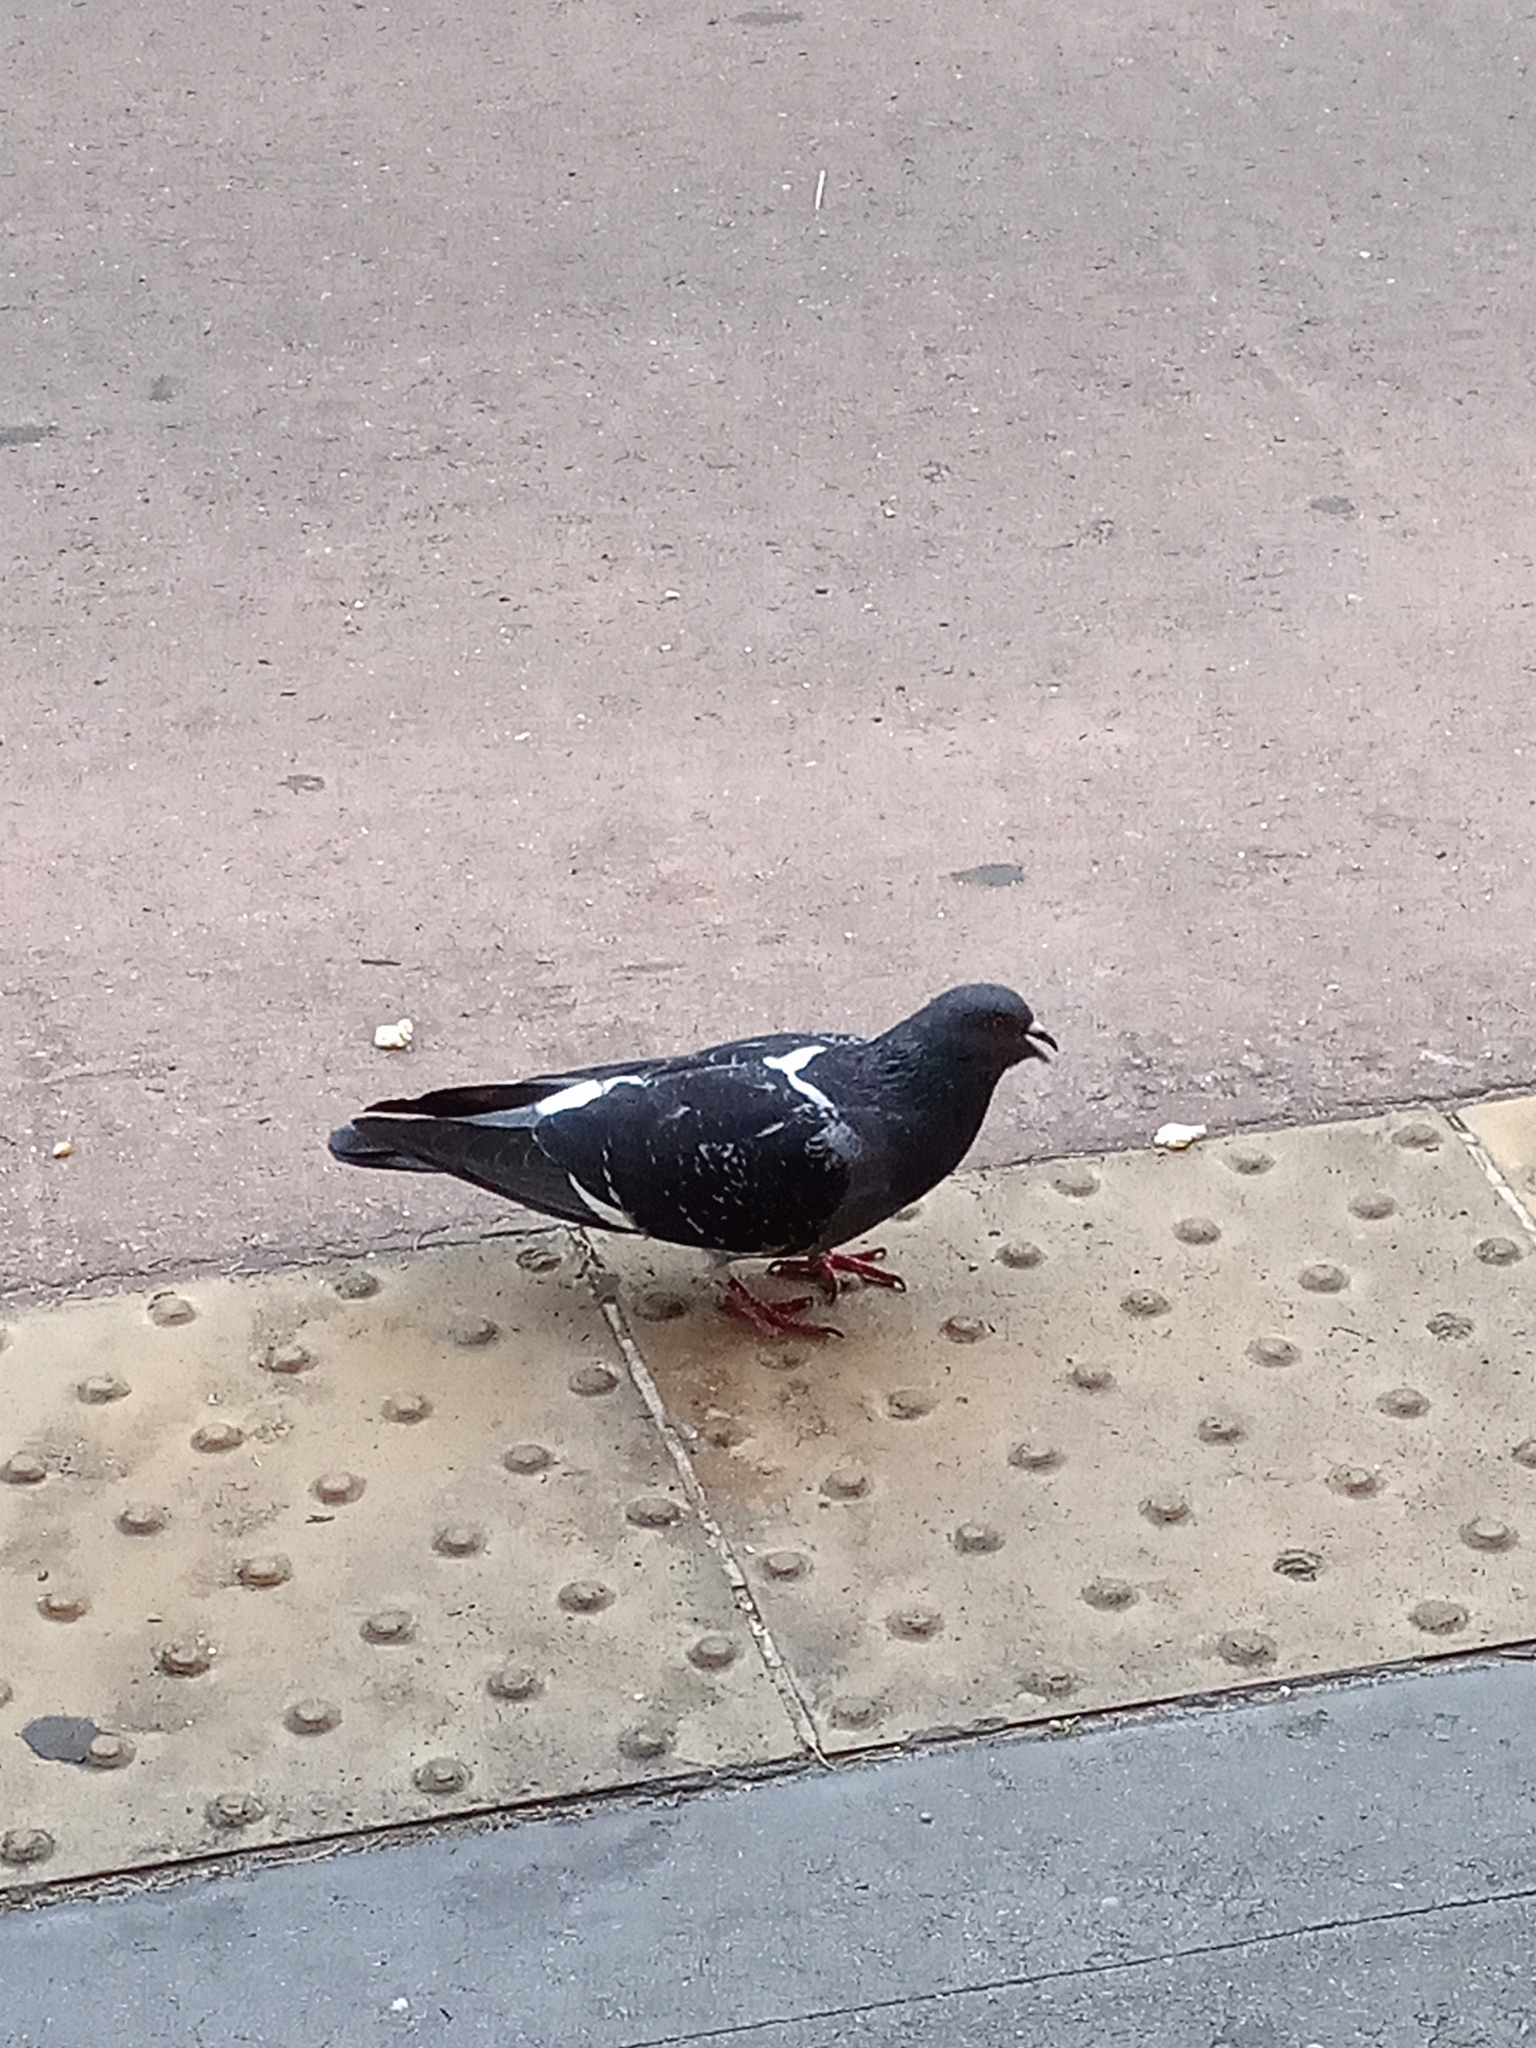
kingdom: Animalia
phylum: Chordata
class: Aves
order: Columbiformes
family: Columbidae
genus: Columba
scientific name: Columba livia
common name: Rock pigeon
